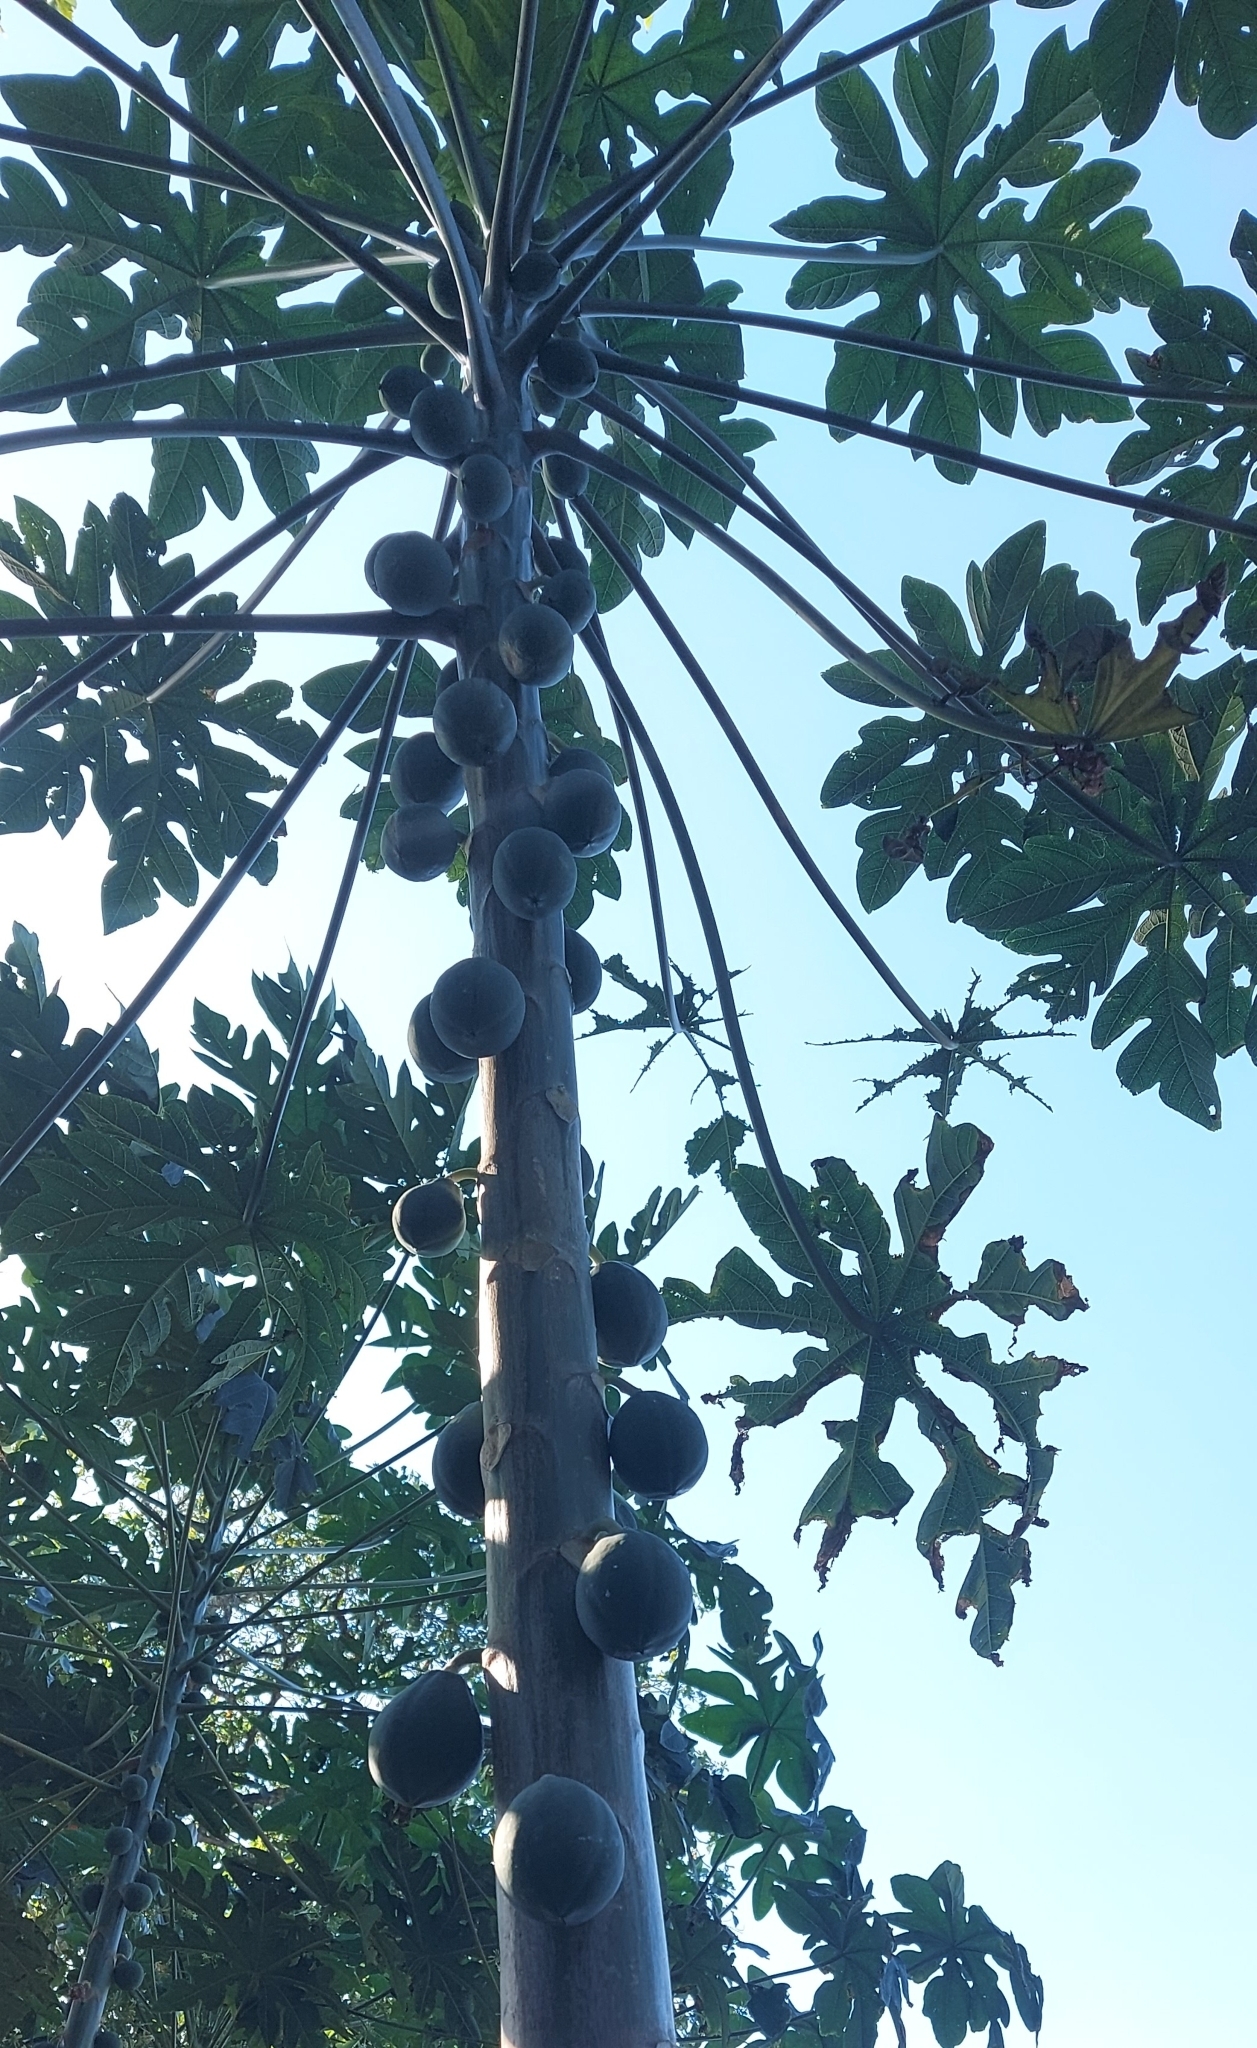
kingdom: Plantae
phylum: Tracheophyta
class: Magnoliopsida
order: Brassicales
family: Caricaceae
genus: Carica
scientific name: Carica papaya
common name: Papaya
